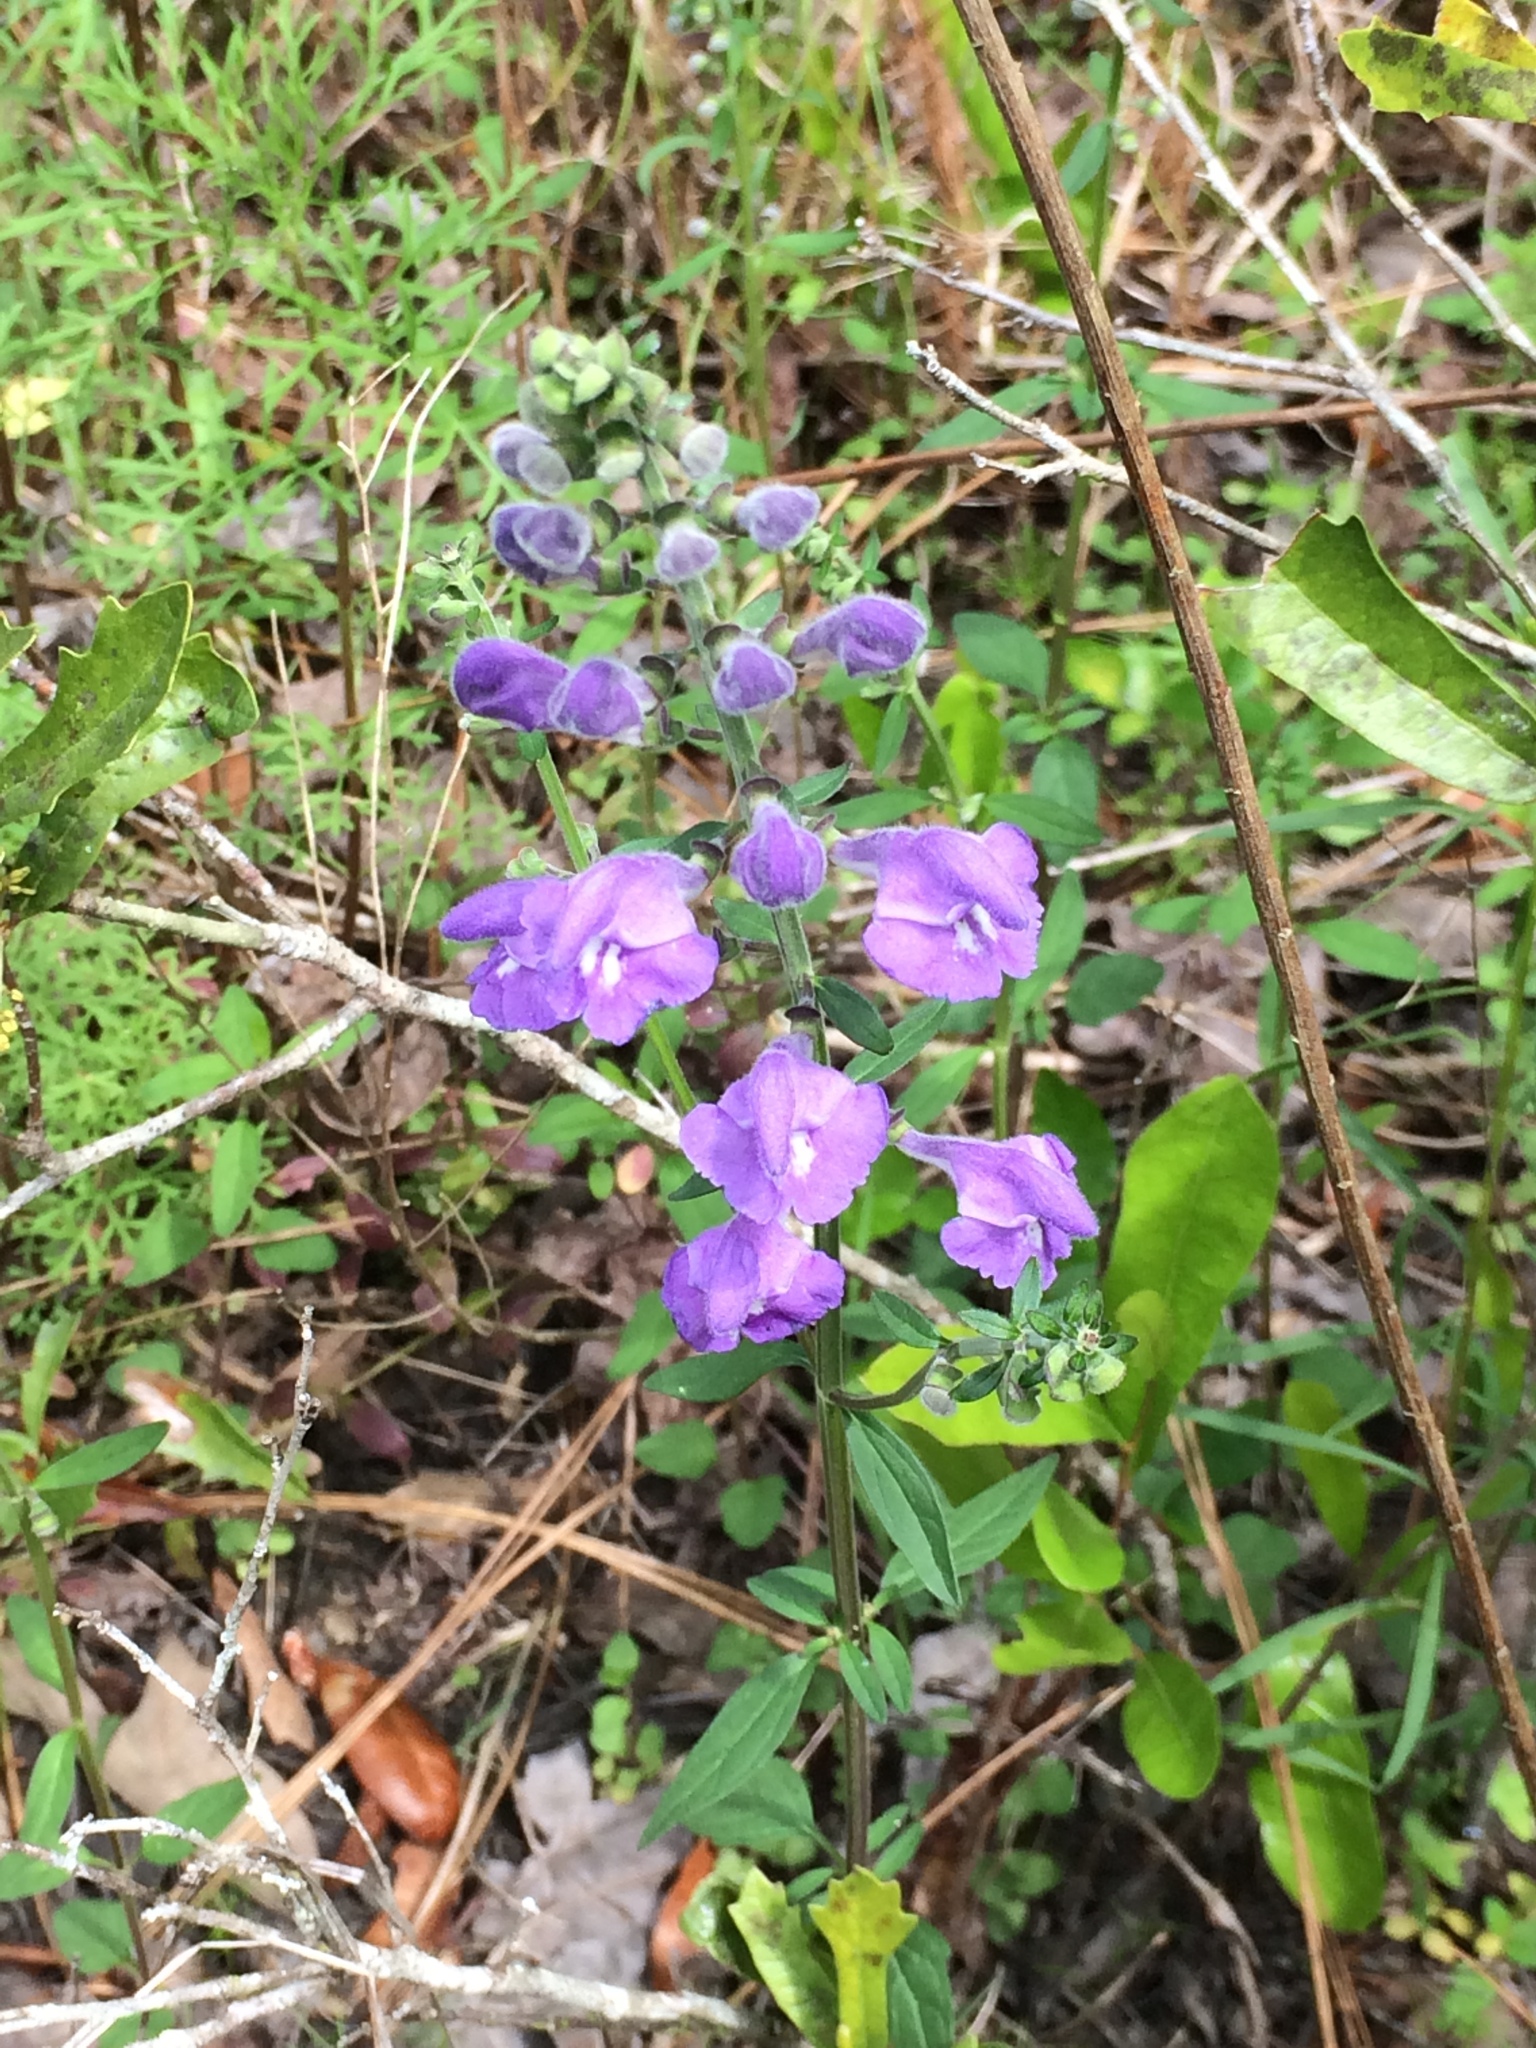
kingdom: Plantae
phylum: Tracheophyta
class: Magnoliopsida
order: Lamiales
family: Lamiaceae
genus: Scutellaria
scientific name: Scutellaria integrifolia
